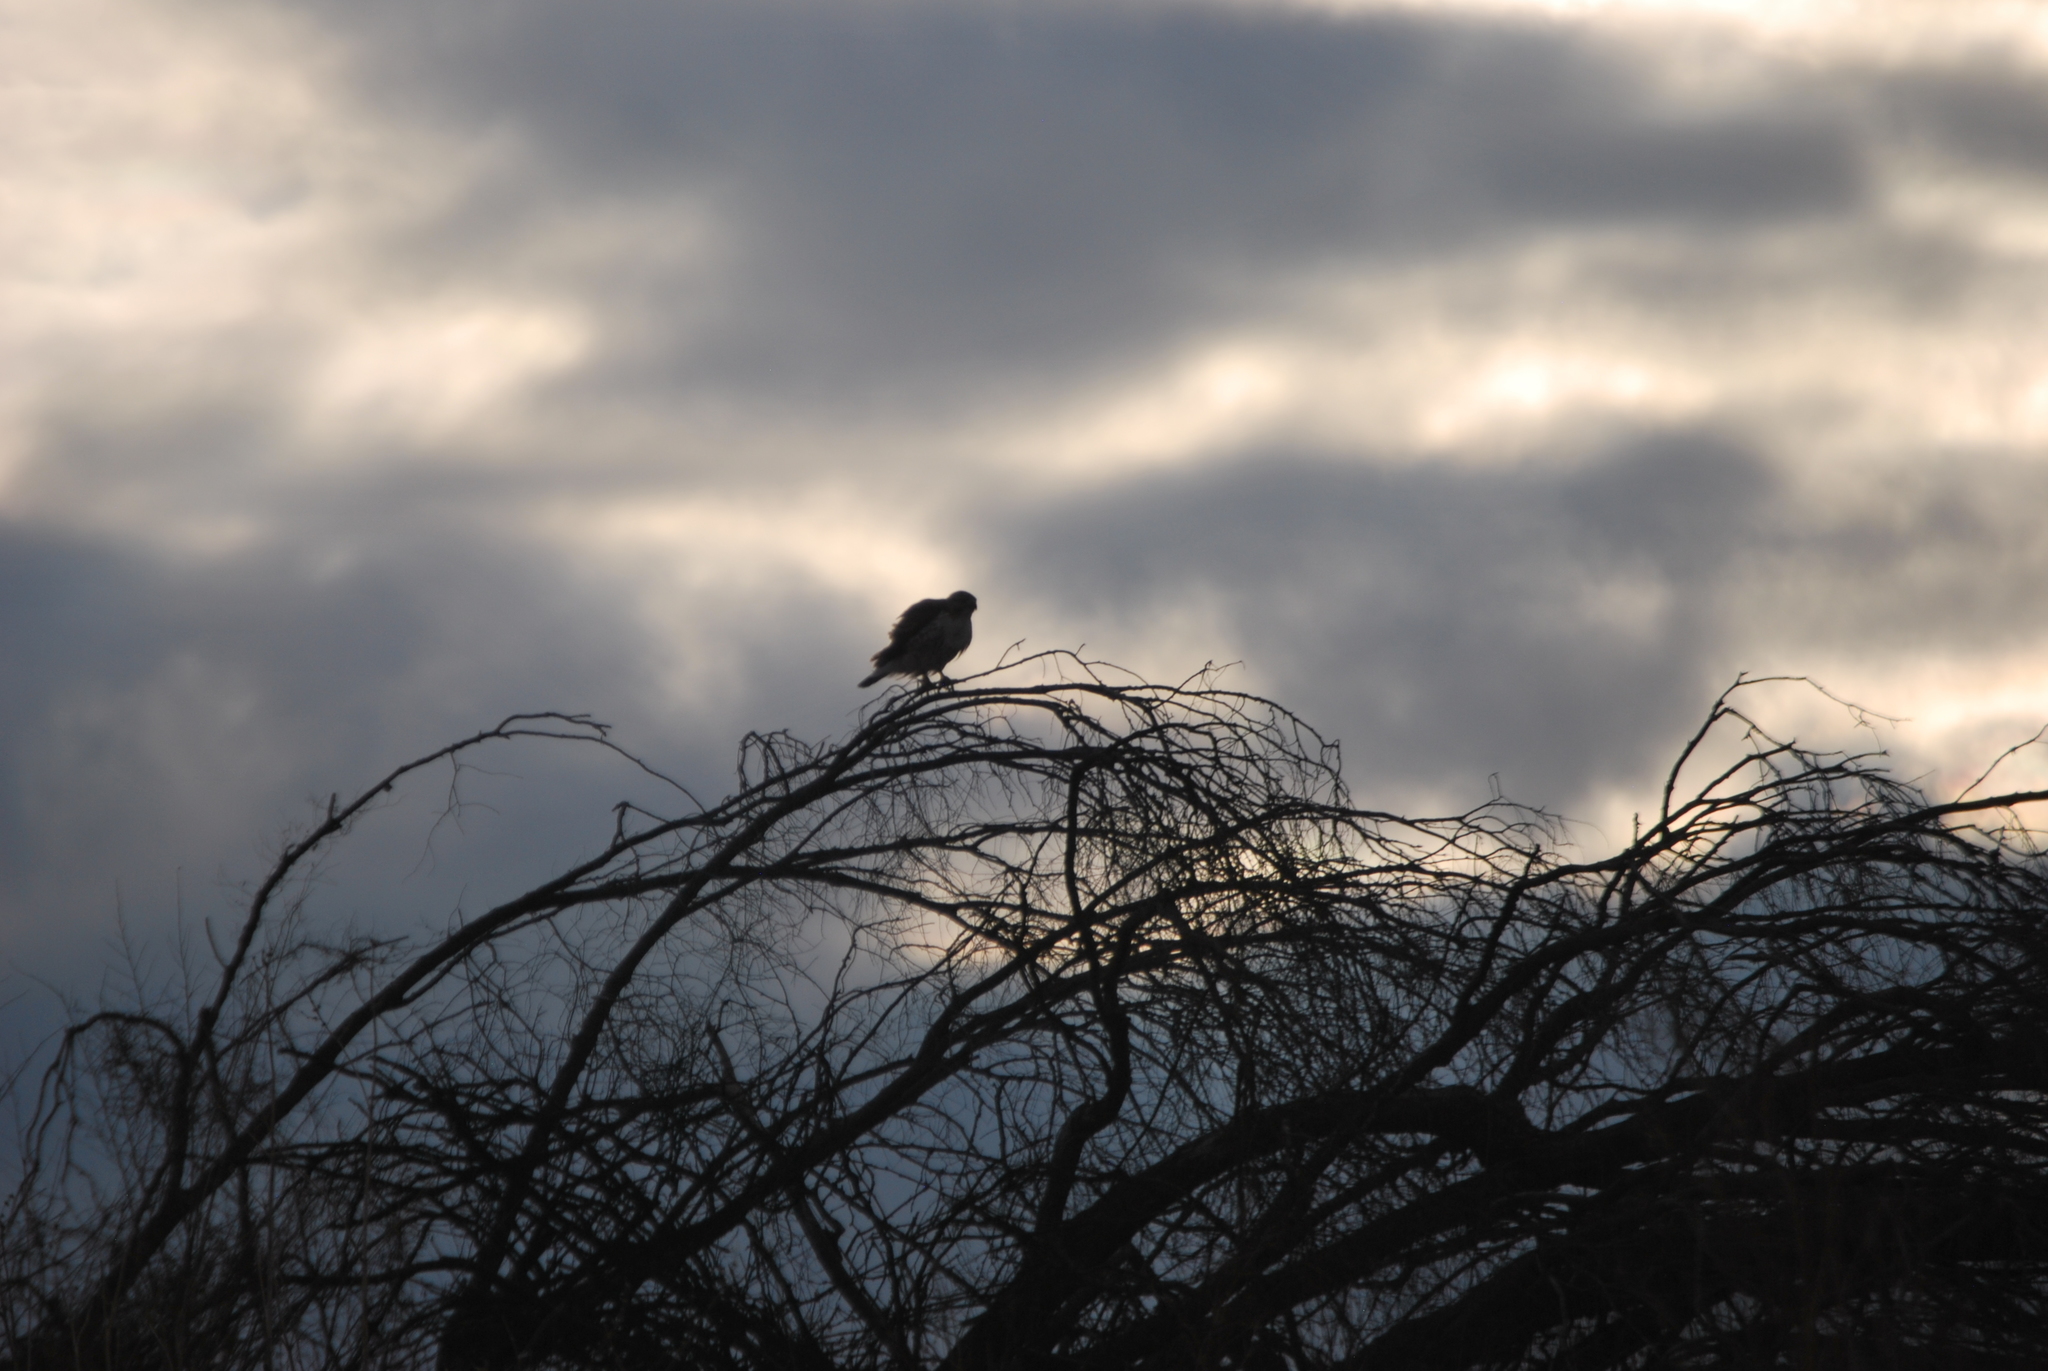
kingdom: Animalia
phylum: Chordata
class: Aves
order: Accipitriformes
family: Accipitridae
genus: Buteo
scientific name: Buteo jamaicensis
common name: Red-tailed hawk
